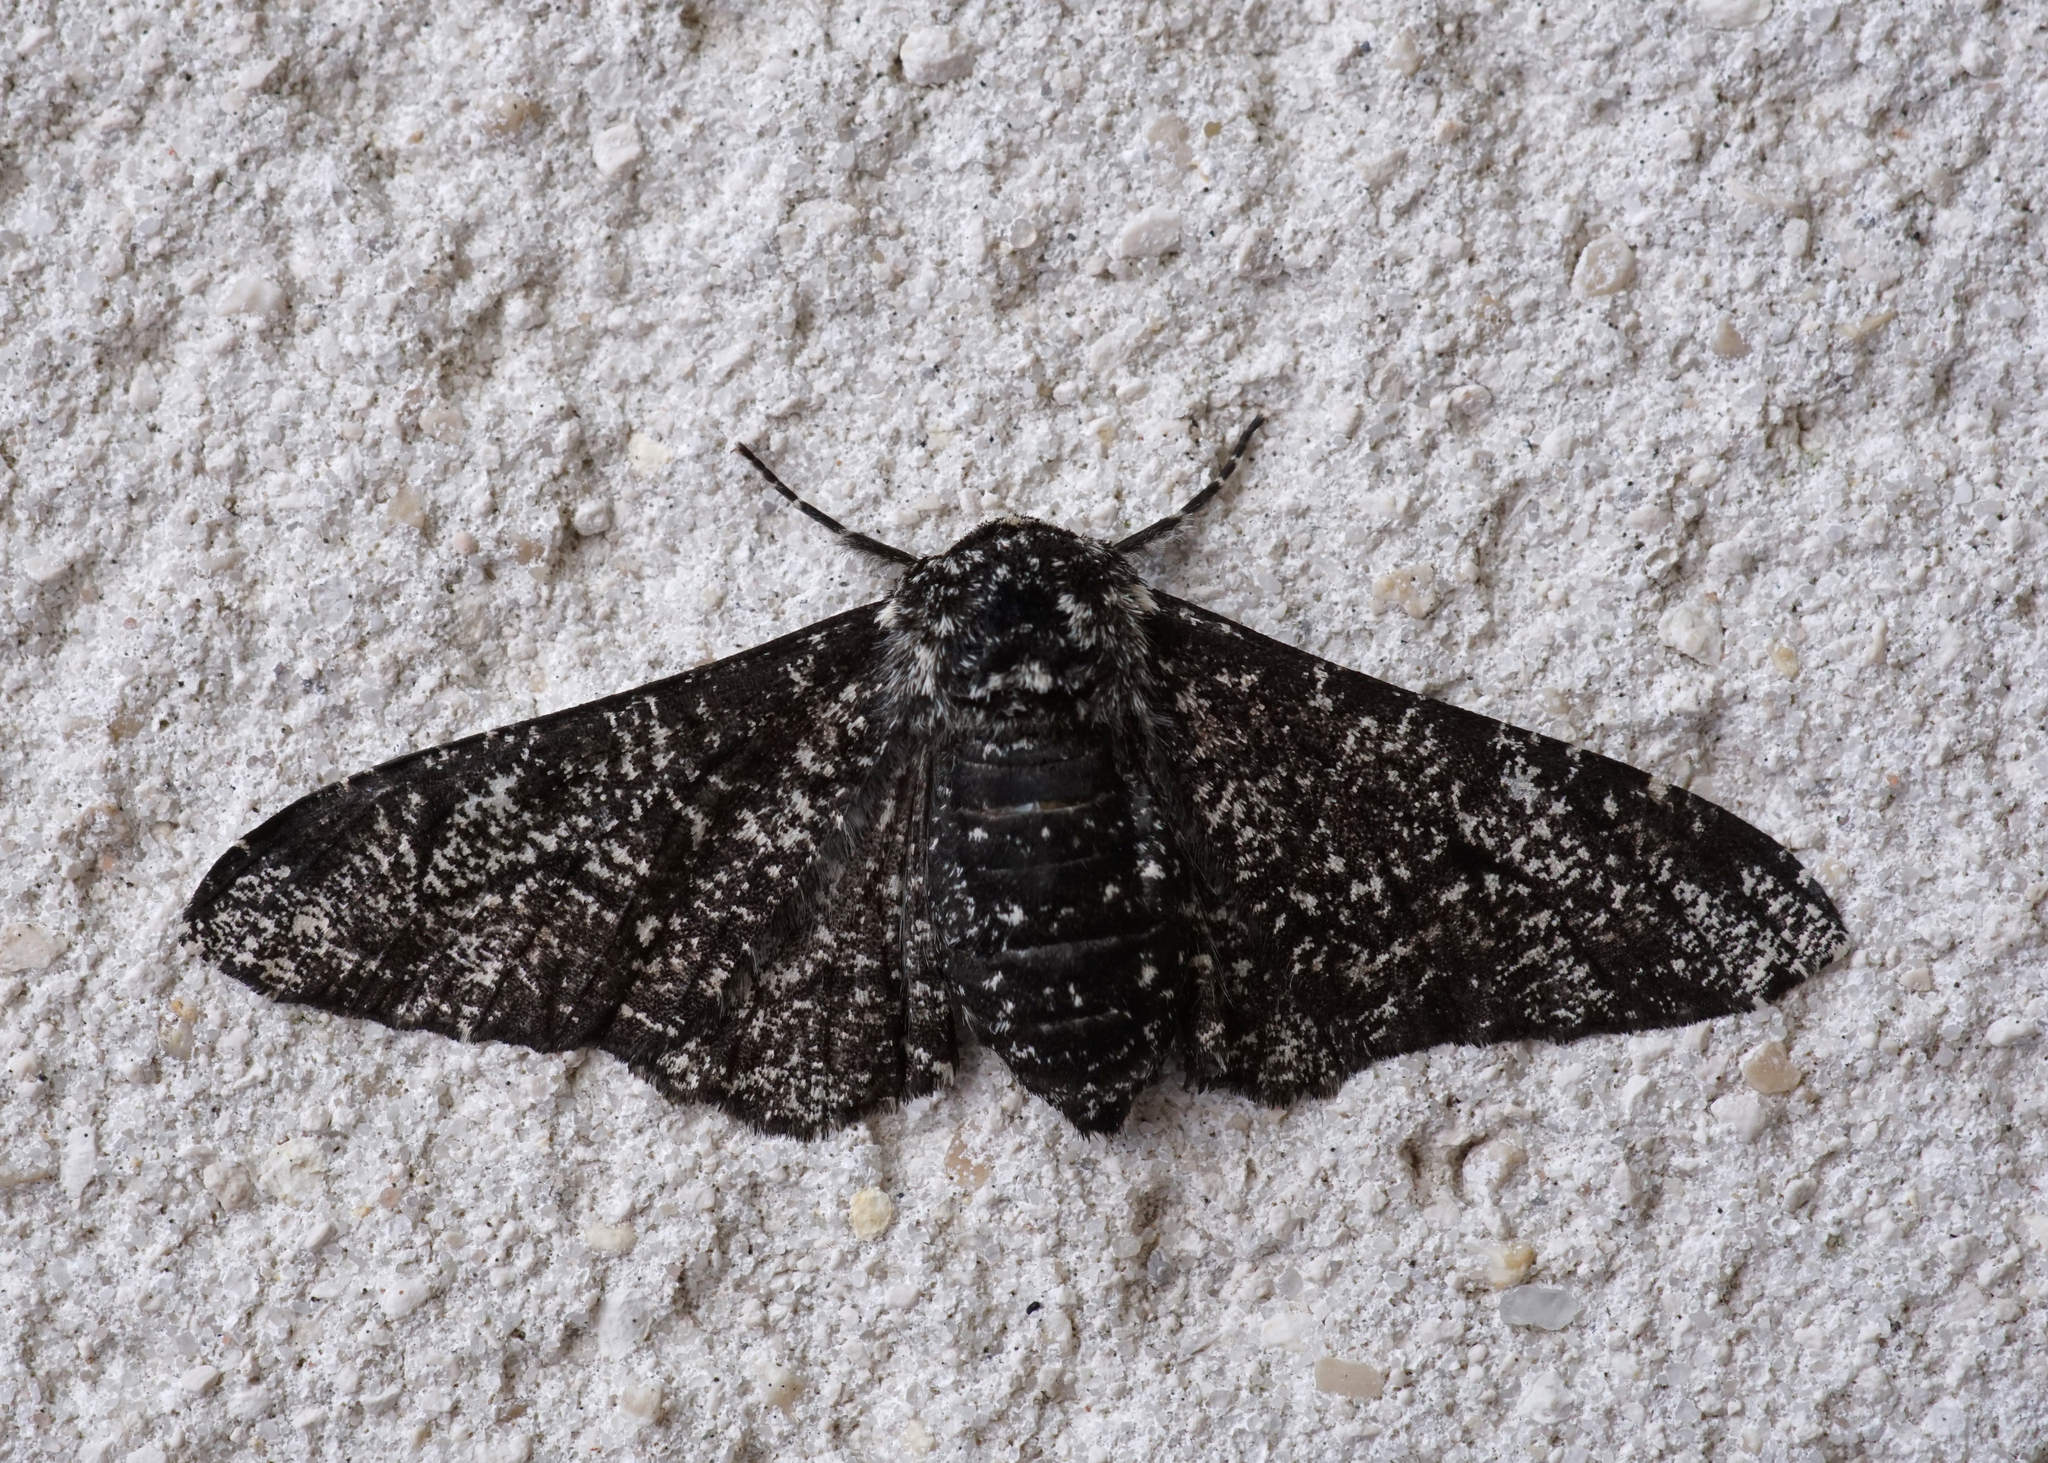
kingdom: Animalia
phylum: Arthropoda
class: Insecta
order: Lepidoptera
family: Geometridae
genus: Biston
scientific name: Biston betularia
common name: Peppered moth
